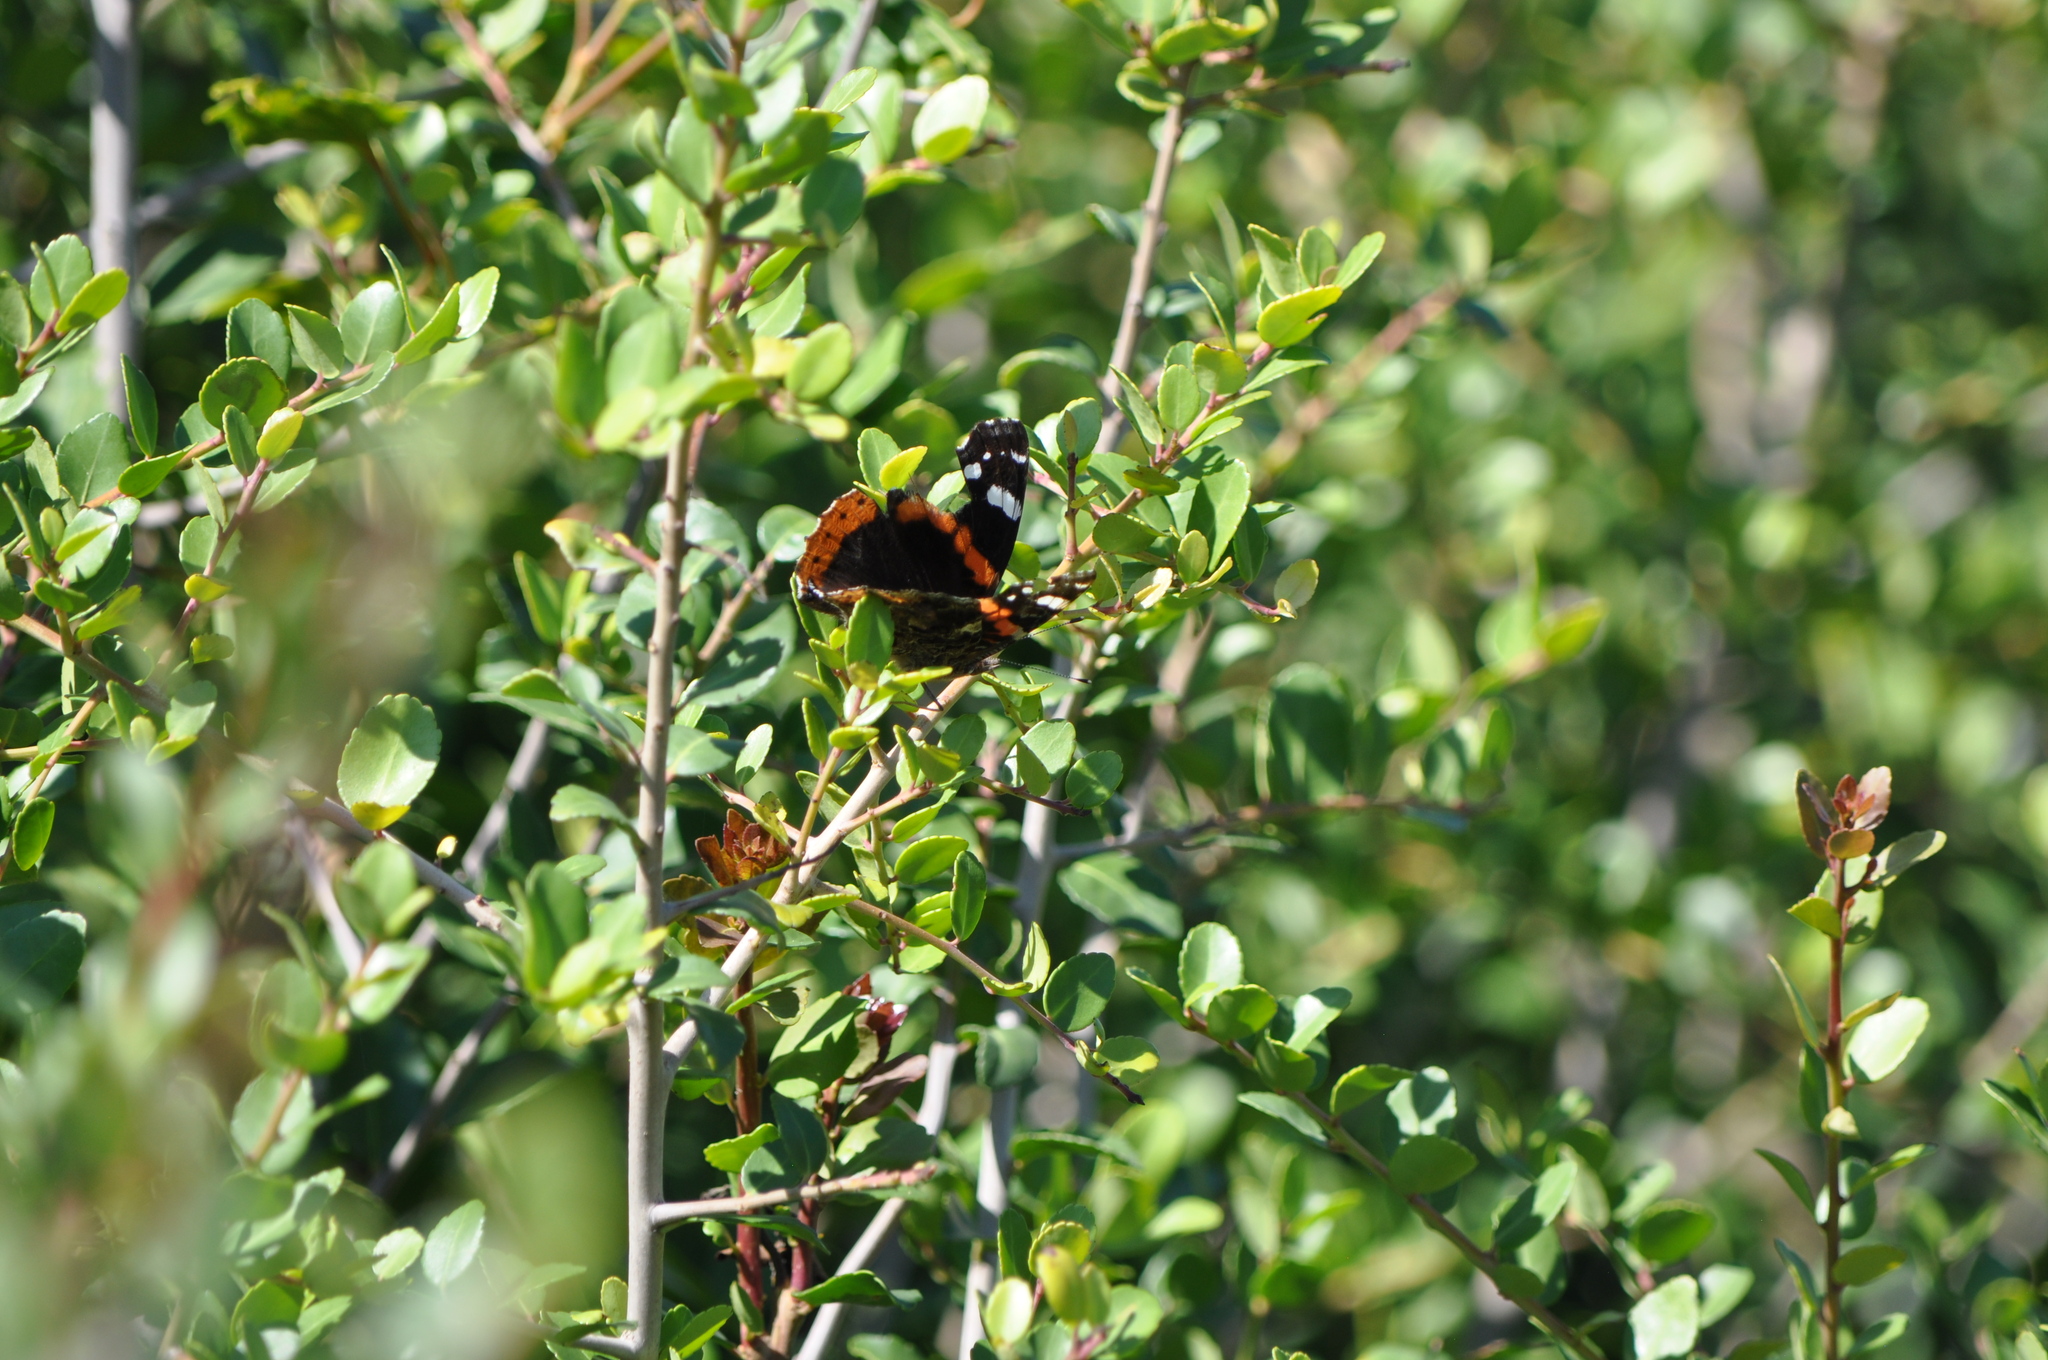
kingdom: Animalia
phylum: Arthropoda
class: Insecta
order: Lepidoptera
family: Nymphalidae
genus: Vanessa
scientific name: Vanessa atalanta
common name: Red admiral
